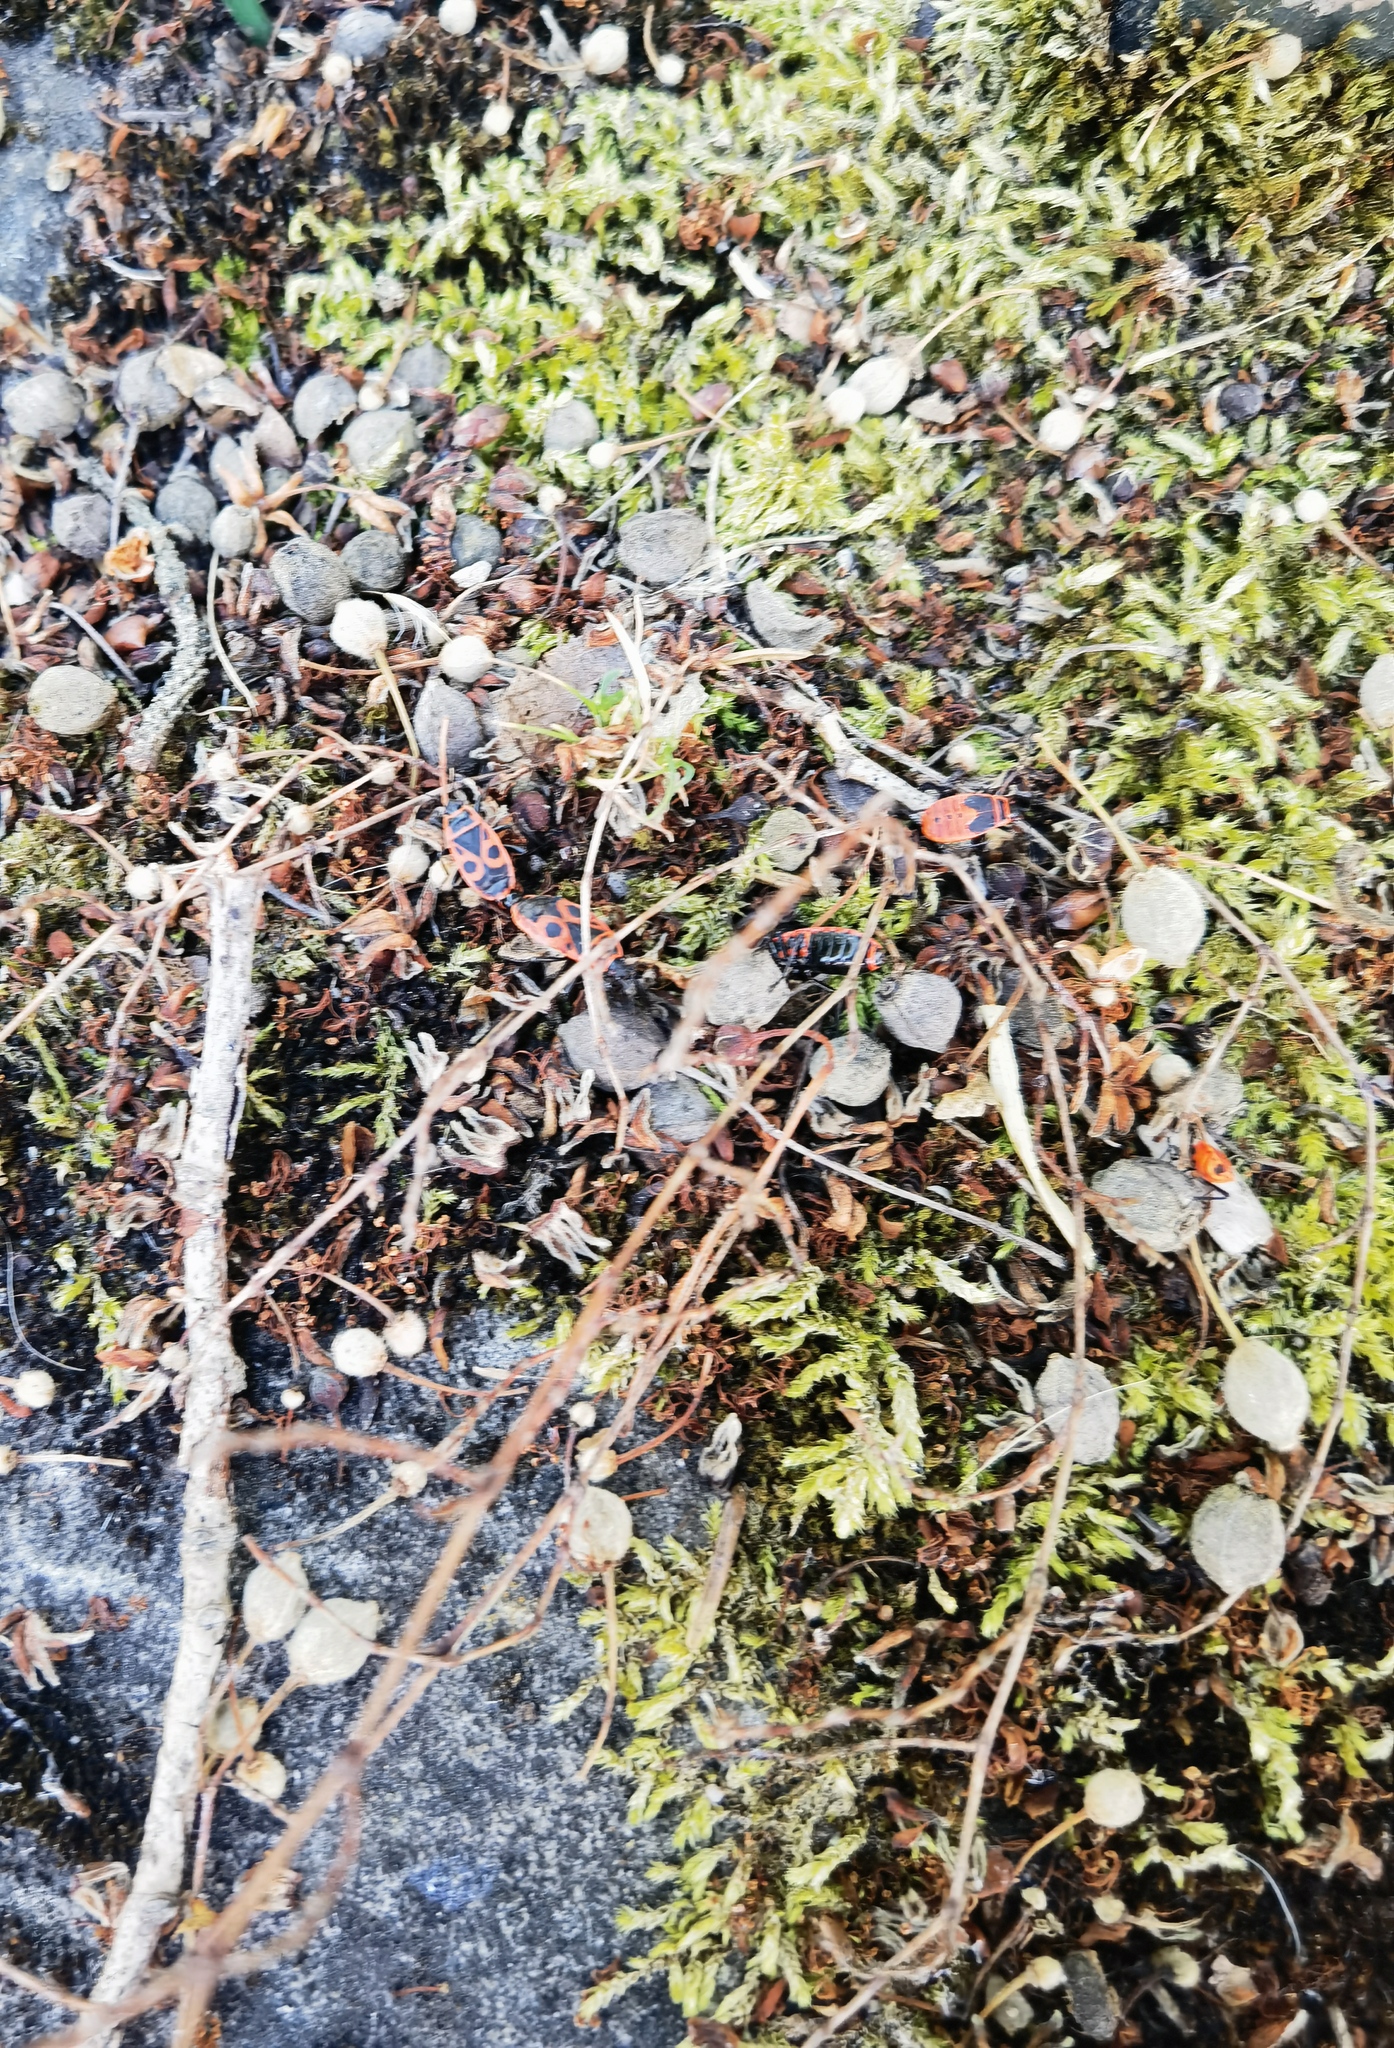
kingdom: Animalia
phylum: Arthropoda
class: Insecta
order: Hemiptera
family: Pyrrhocoridae
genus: Pyrrhocoris
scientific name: Pyrrhocoris apterus
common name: Firebug
